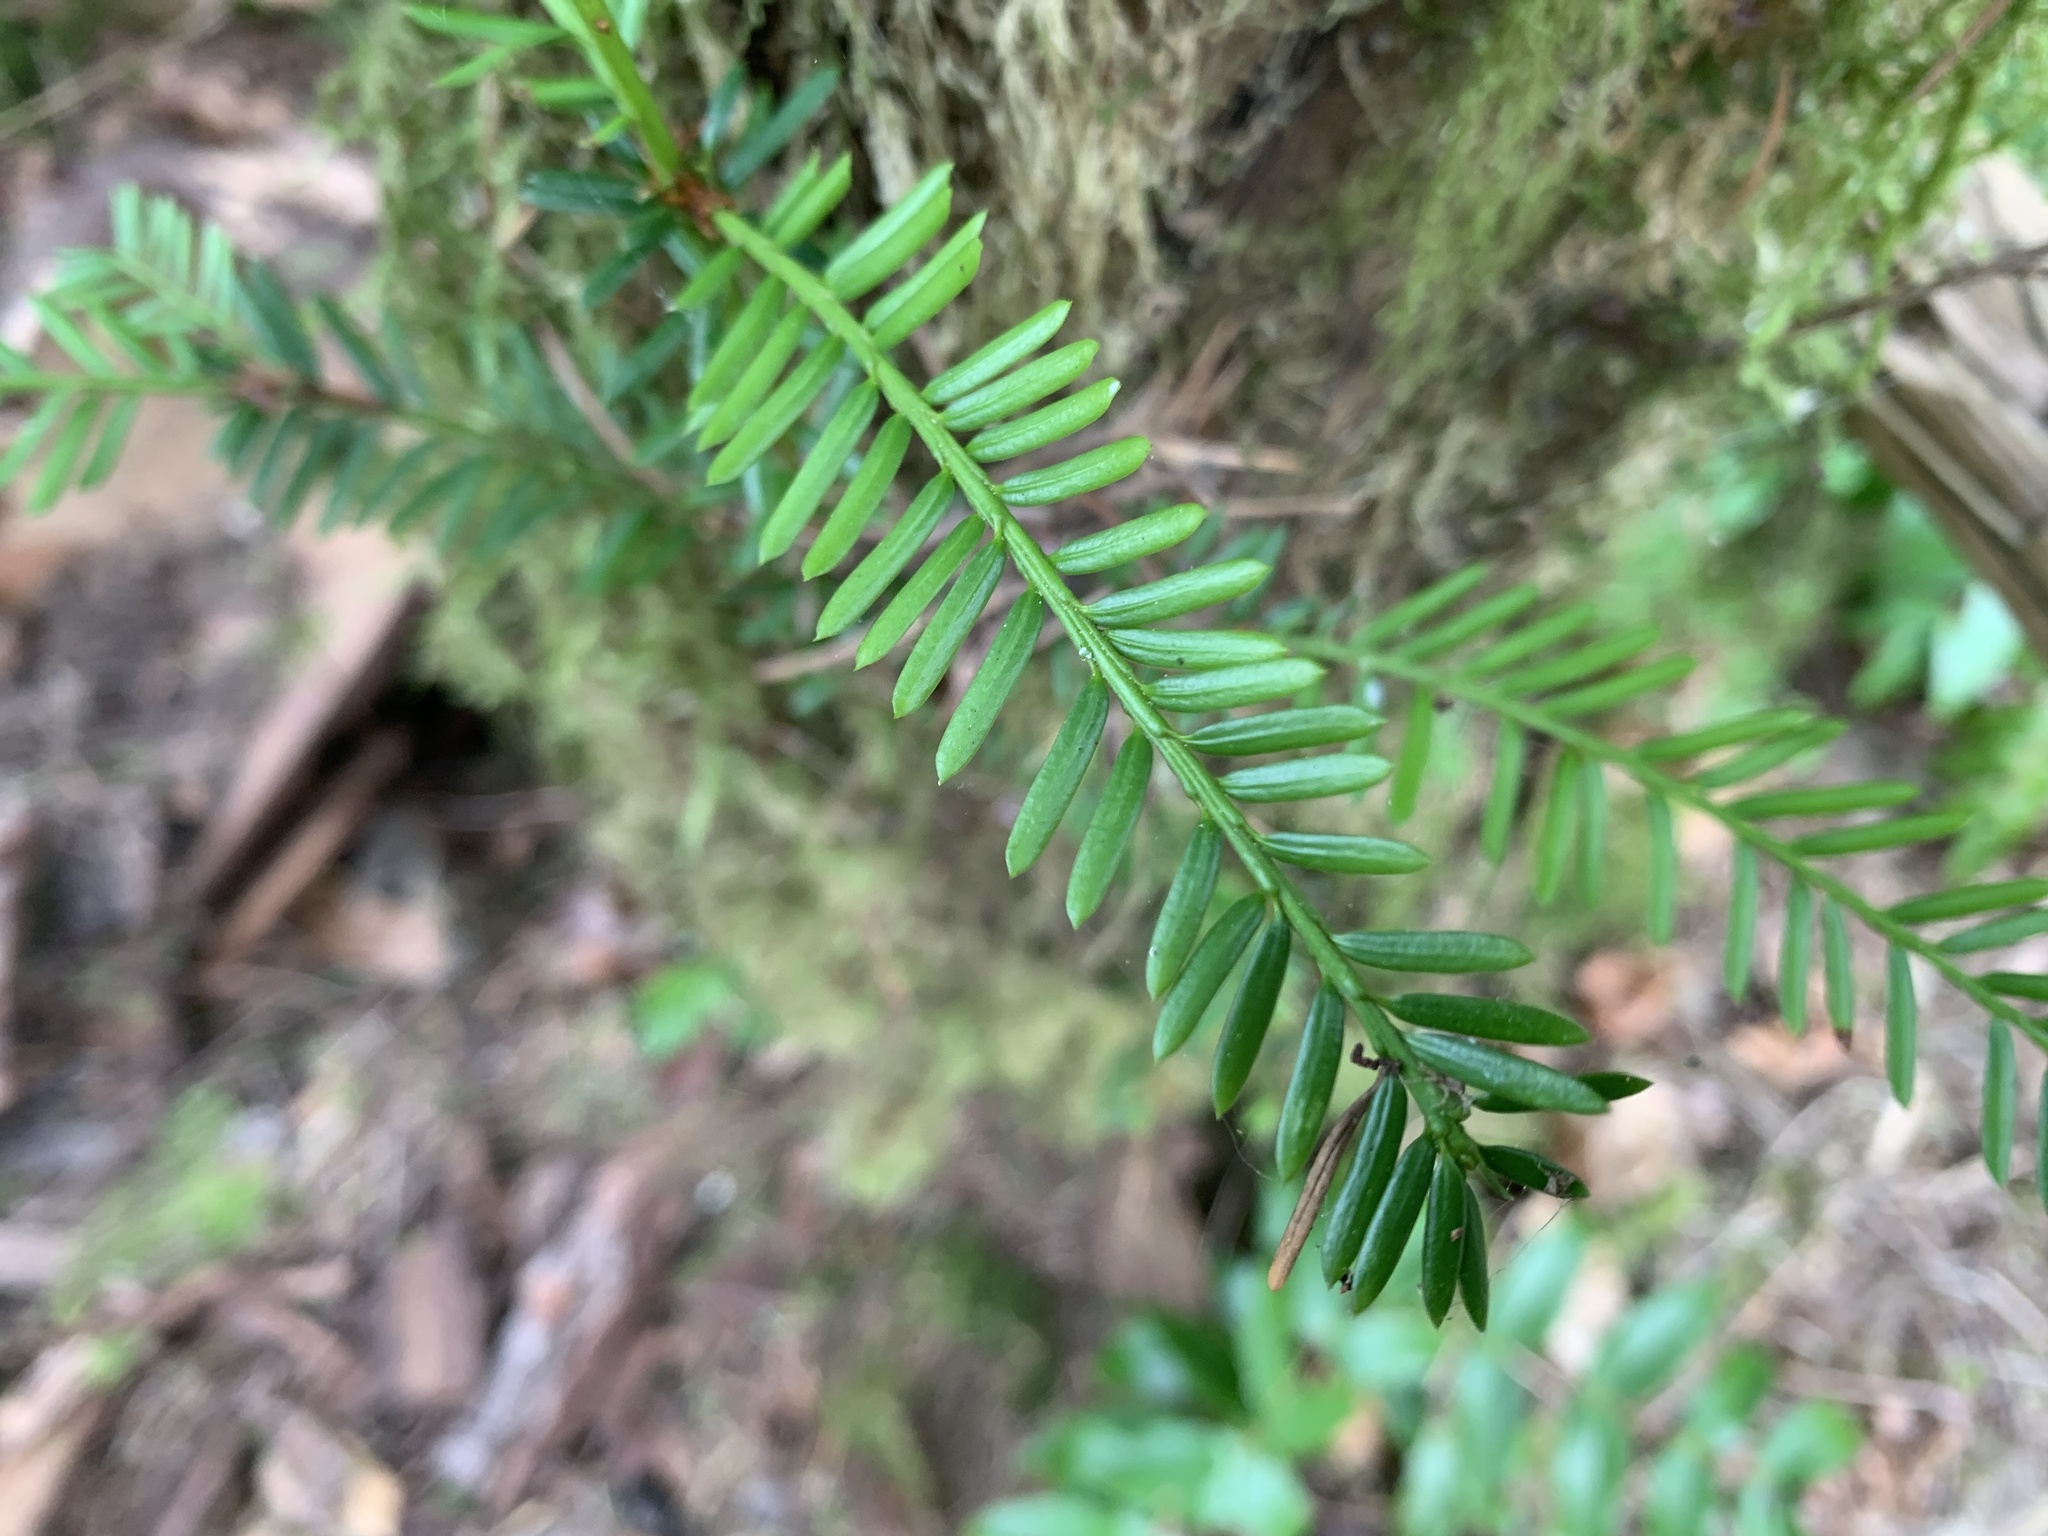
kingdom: Plantae
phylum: Tracheophyta
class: Pinopsida
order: Pinales
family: Taxaceae
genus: Taxus
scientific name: Taxus brevifolia
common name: Pacific yew
